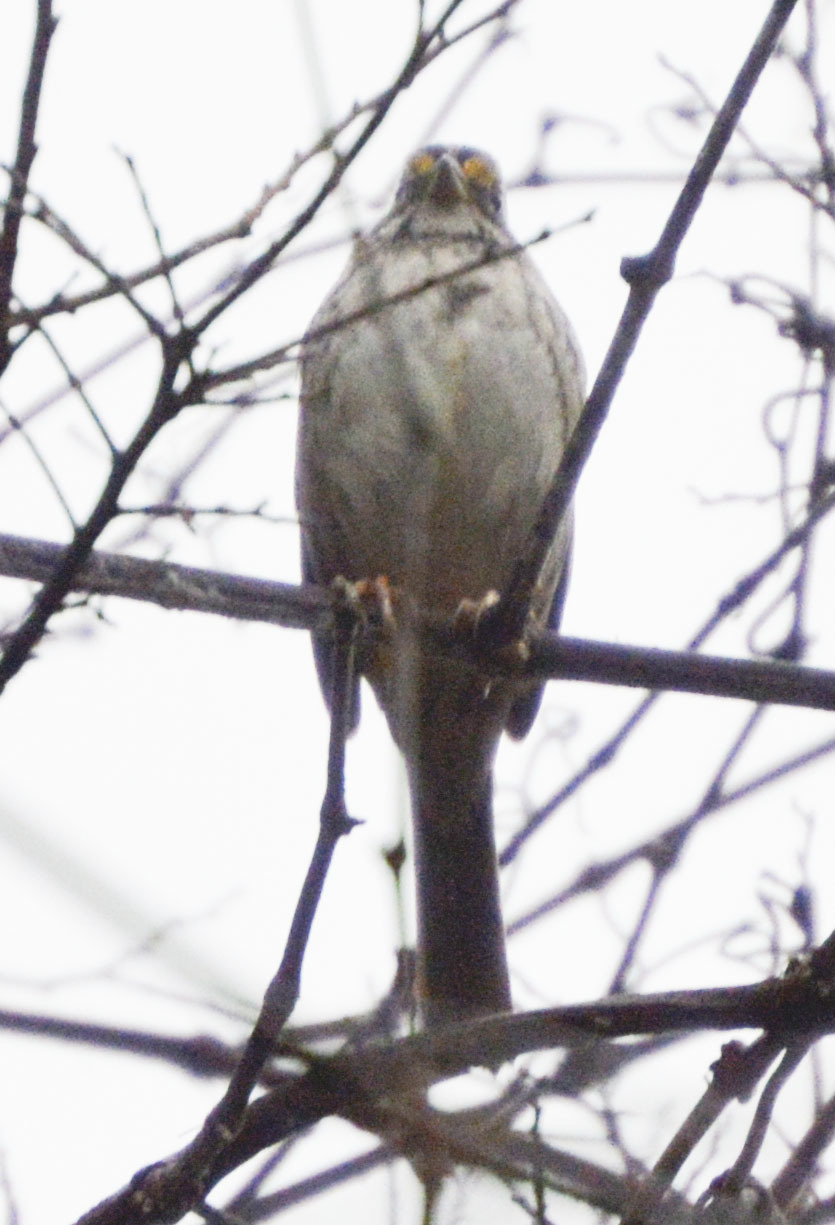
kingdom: Animalia
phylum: Chordata
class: Aves
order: Passeriformes
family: Passerellidae
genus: Zonotrichia
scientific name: Zonotrichia albicollis
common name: White-throated sparrow
